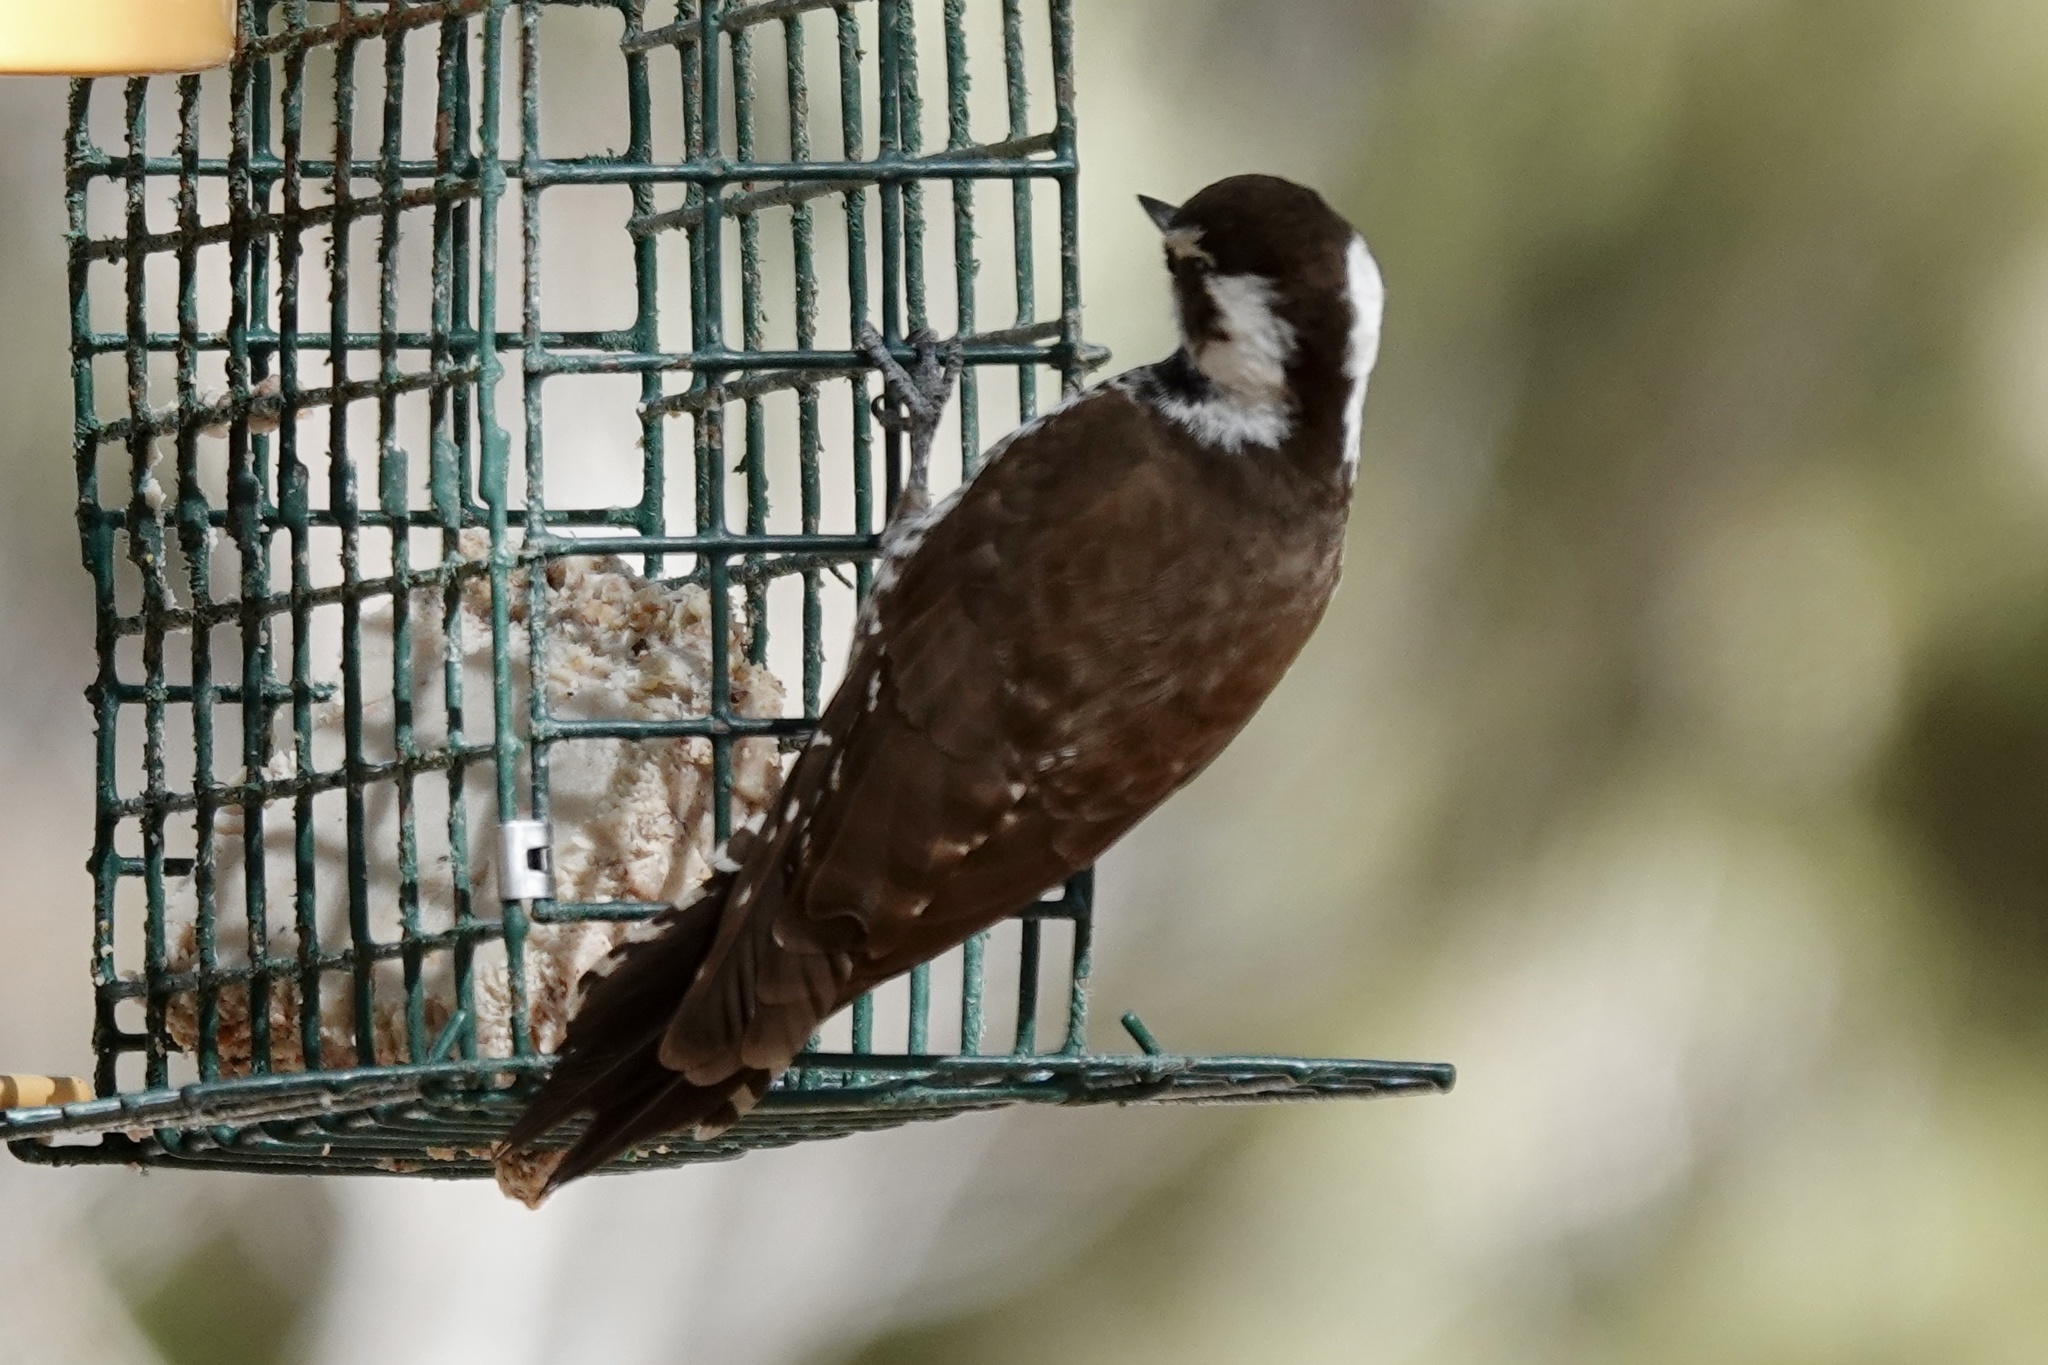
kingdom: Animalia
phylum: Chordata
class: Aves
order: Piciformes
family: Picidae
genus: Leuconotopicus
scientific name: Leuconotopicus arizonae
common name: Arizona woodpecker
